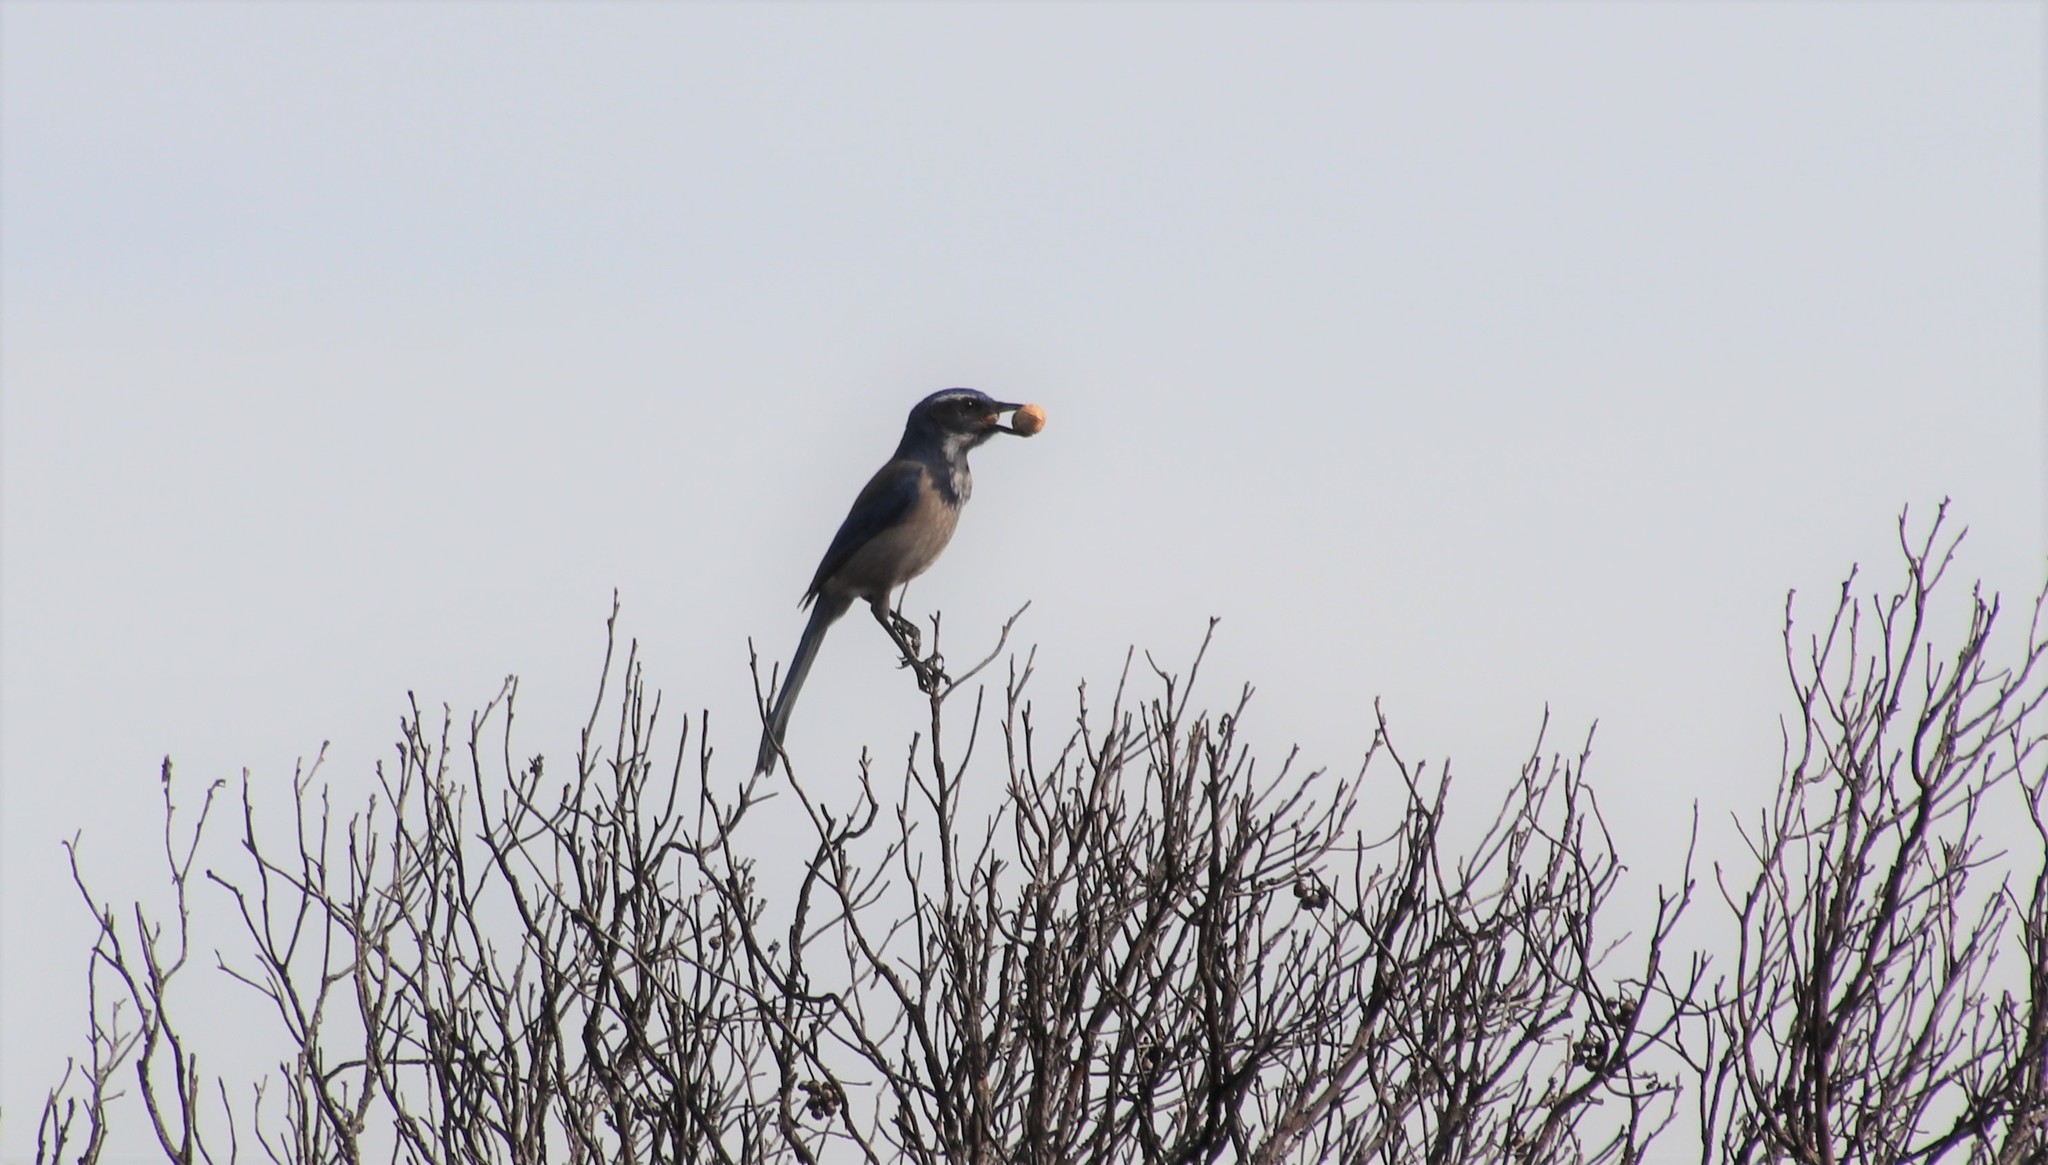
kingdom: Animalia
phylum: Chordata
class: Aves
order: Passeriformes
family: Corvidae
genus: Aphelocoma
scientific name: Aphelocoma californica
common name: California scrub-jay
